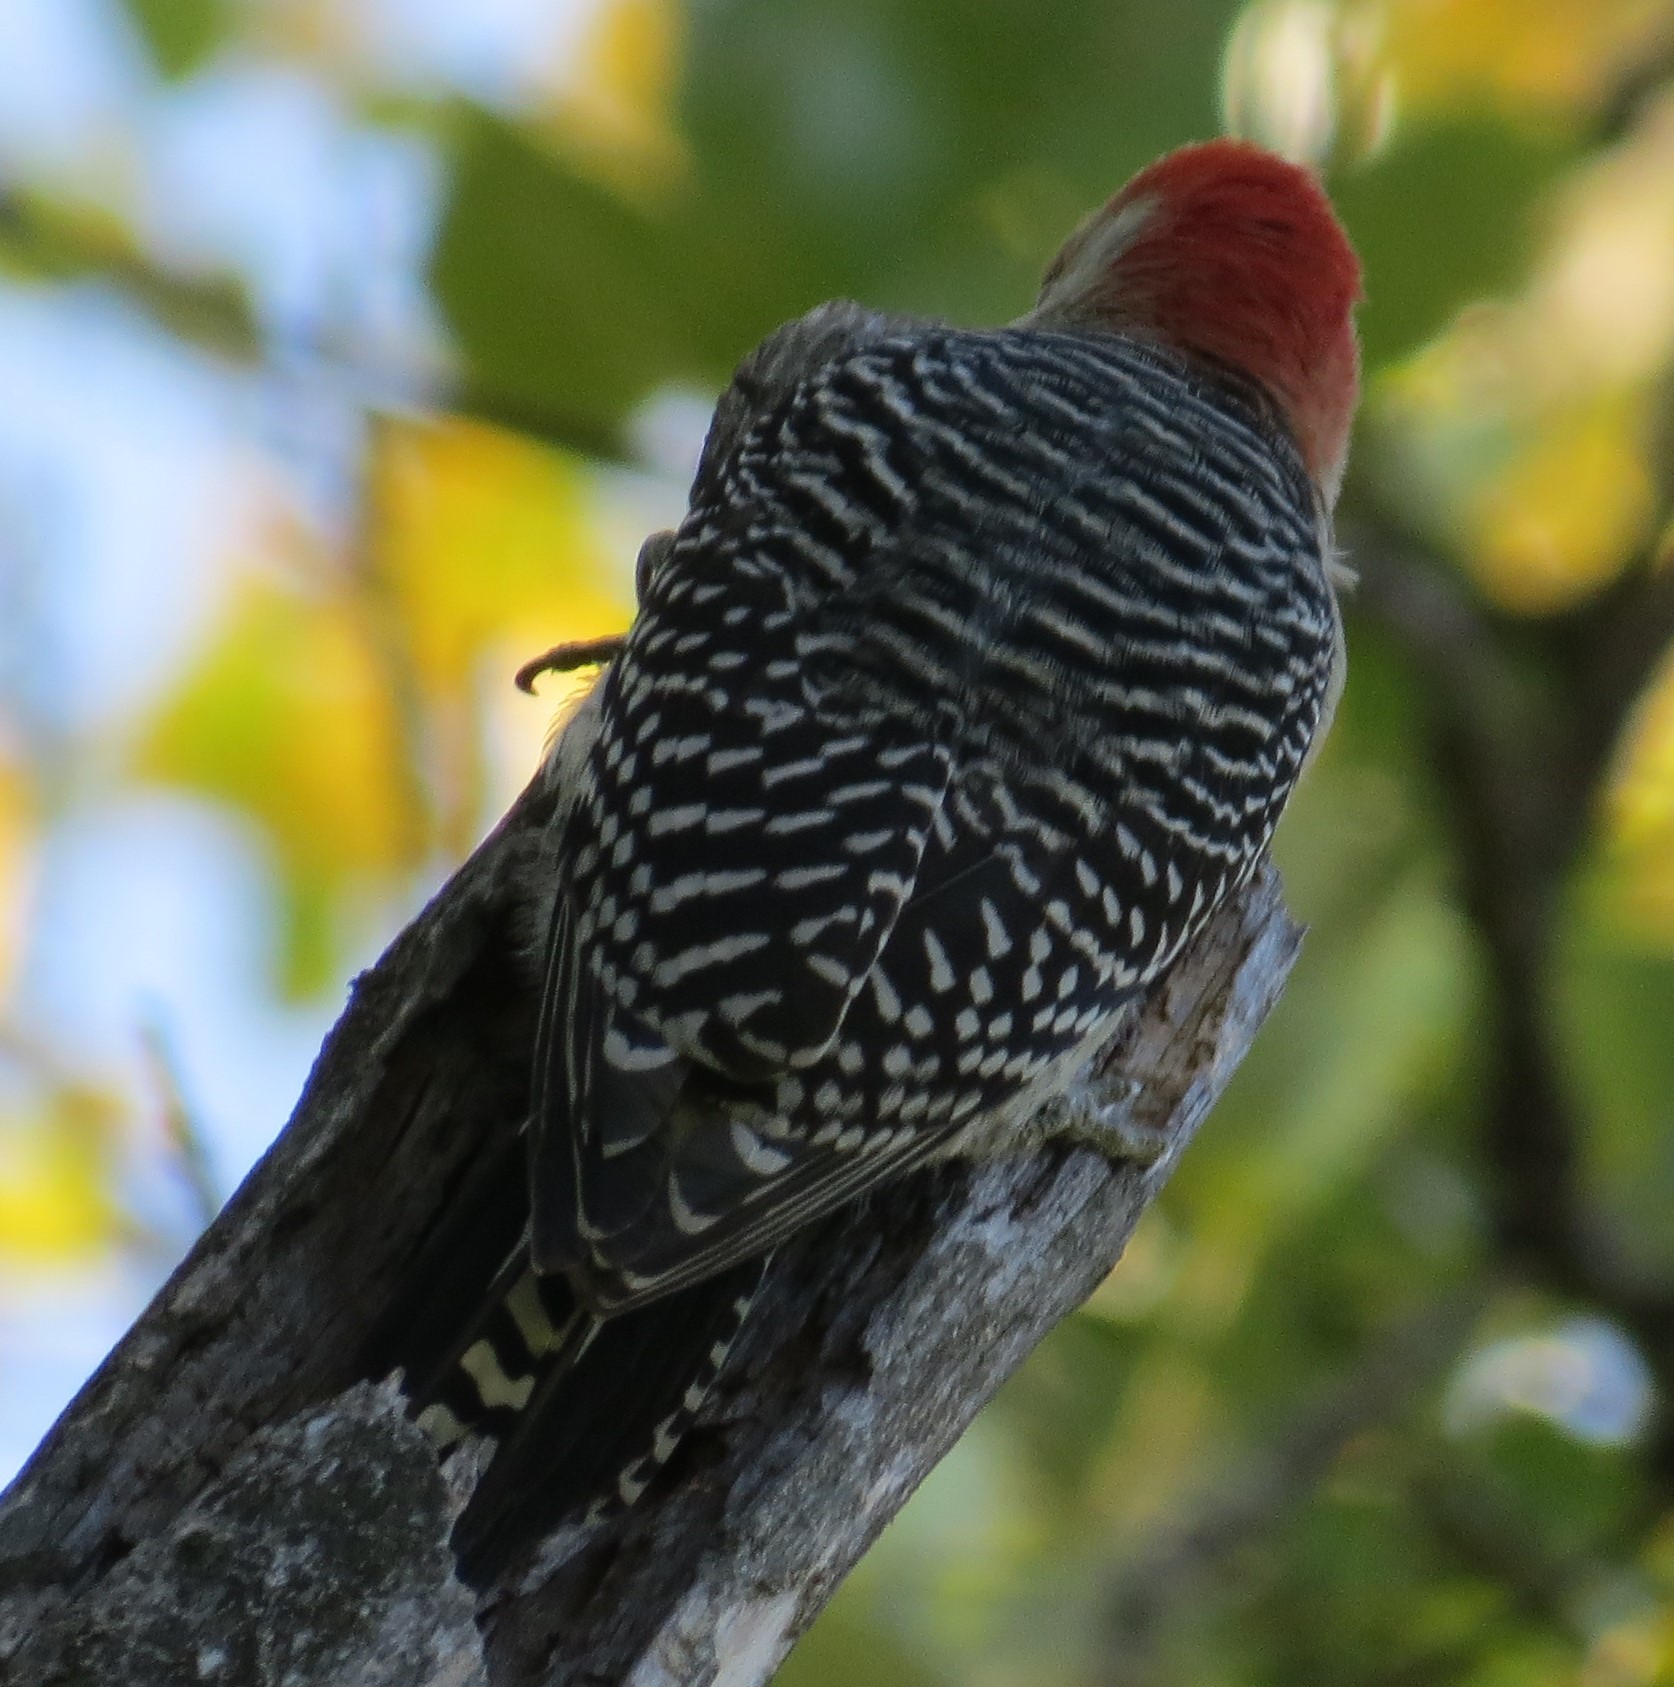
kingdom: Animalia
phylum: Chordata
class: Aves
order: Piciformes
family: Picidae
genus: Melanerpes
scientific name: Melanerpes carolinus
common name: Red-bellied woodpecker
